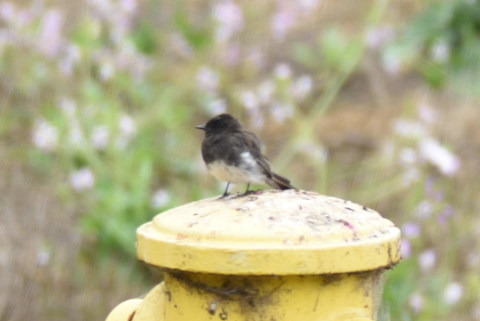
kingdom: Animalia
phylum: Chordata
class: Aves
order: Passeriformes
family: Tyrannidae
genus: Sayornis
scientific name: Sayornis nigricans
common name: Black phoebe
